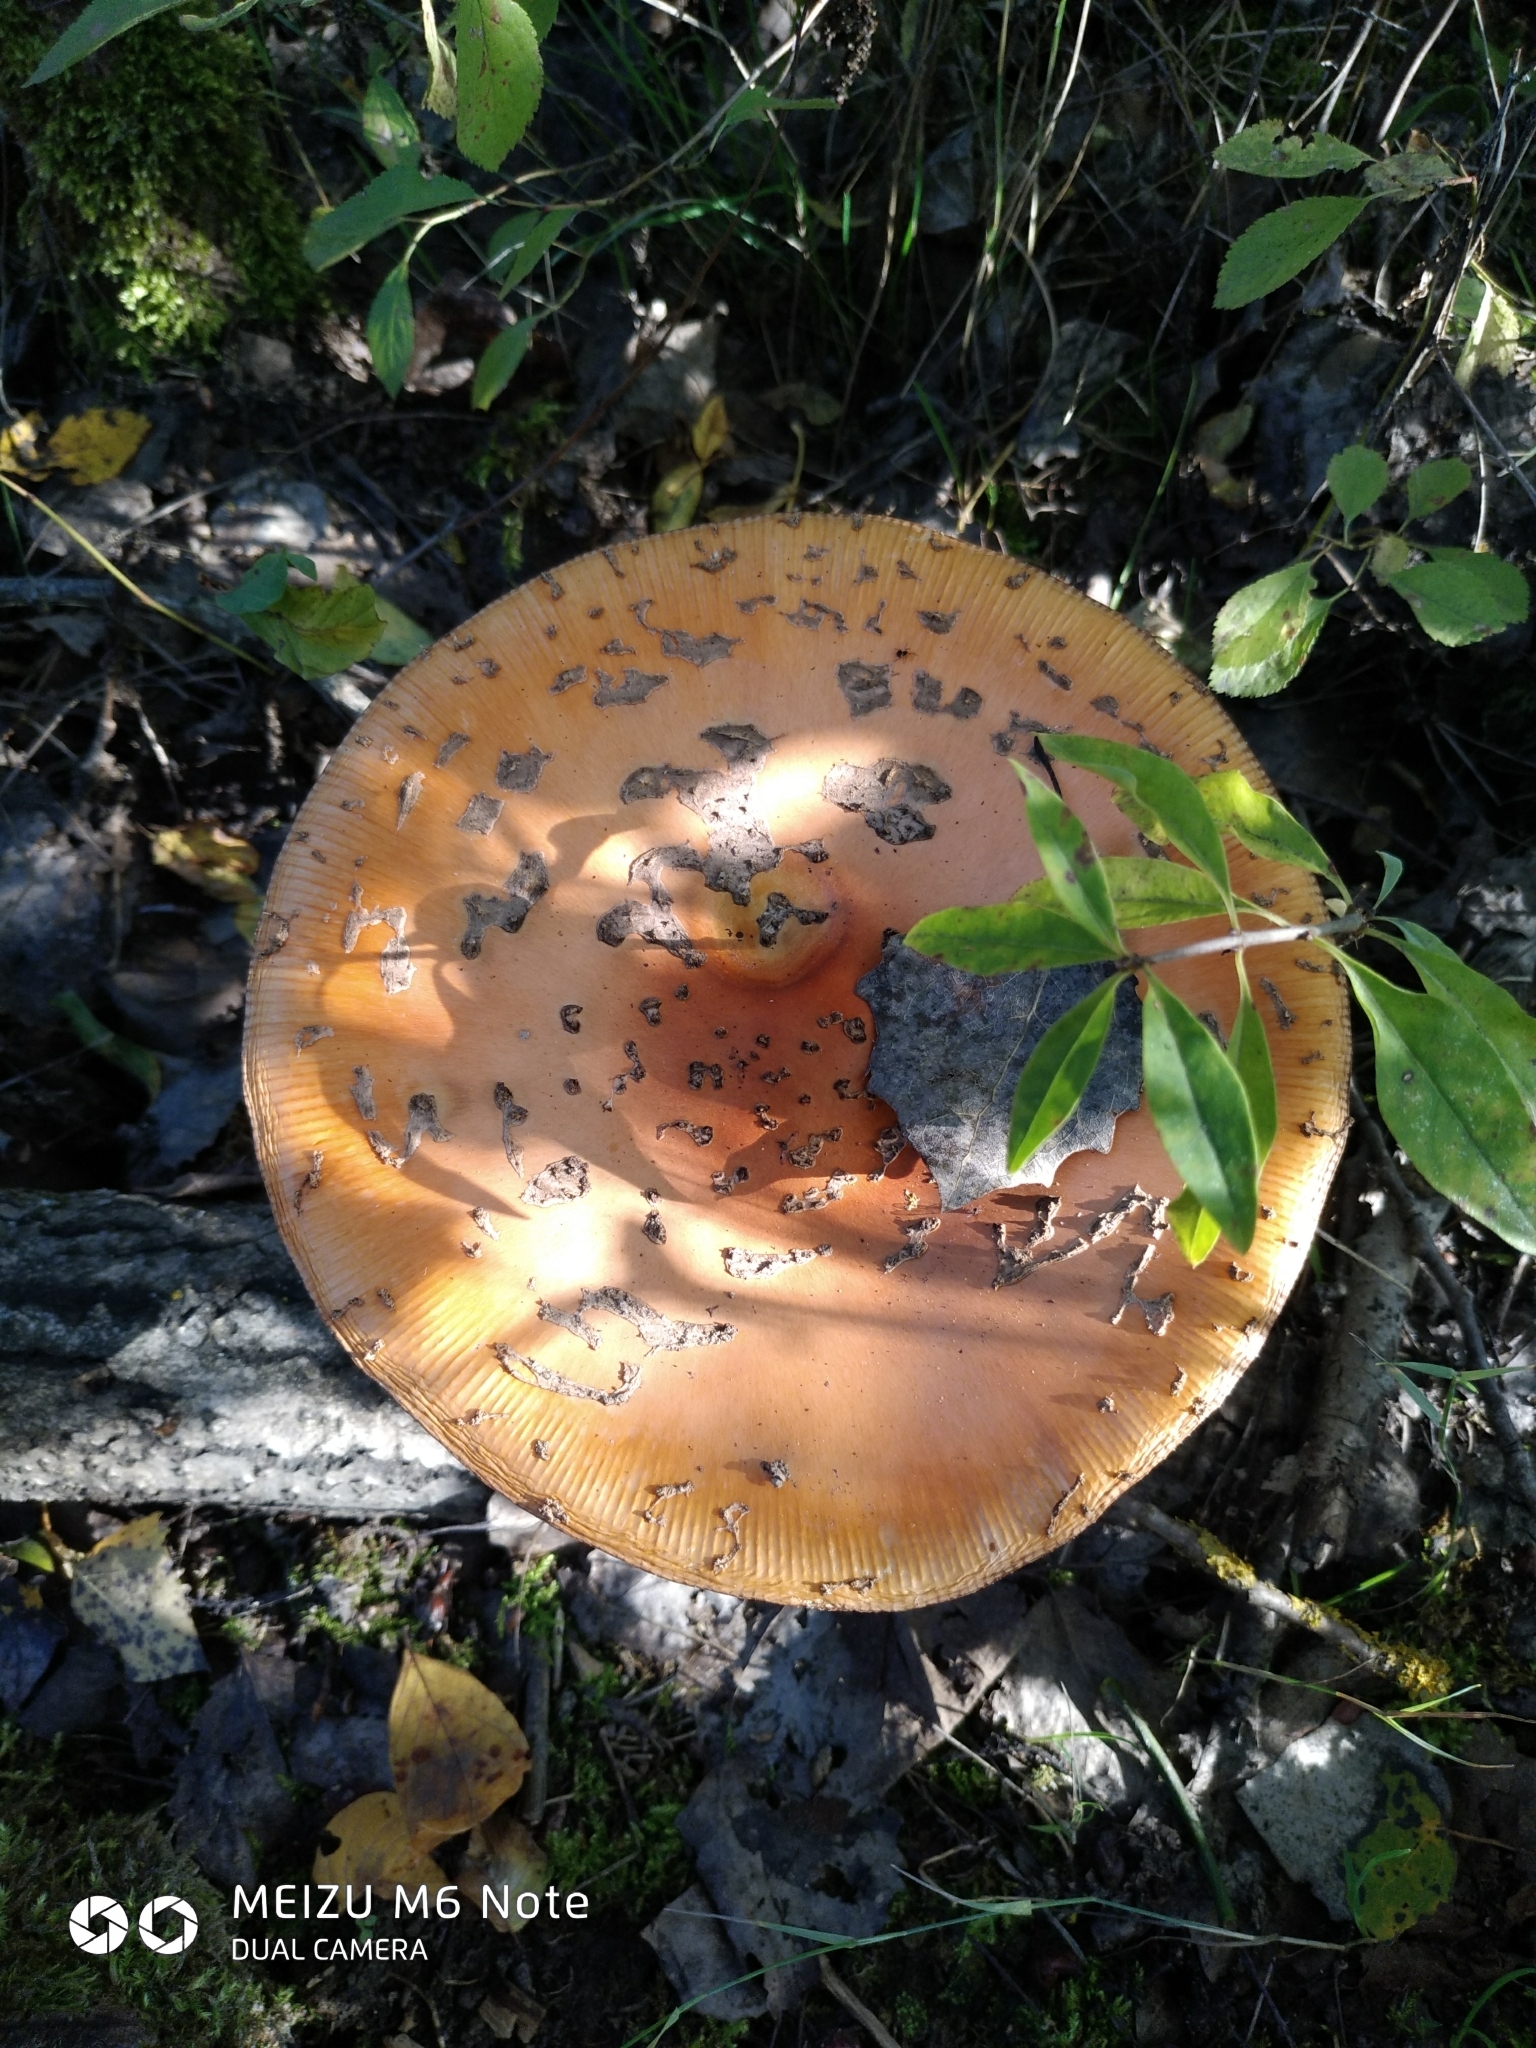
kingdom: Fungi
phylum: Basidiomycota
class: Agaricomycetes
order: Agaricales
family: Amanitaceae
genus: Amanita
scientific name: Amanita muscaria
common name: Fly agaric
